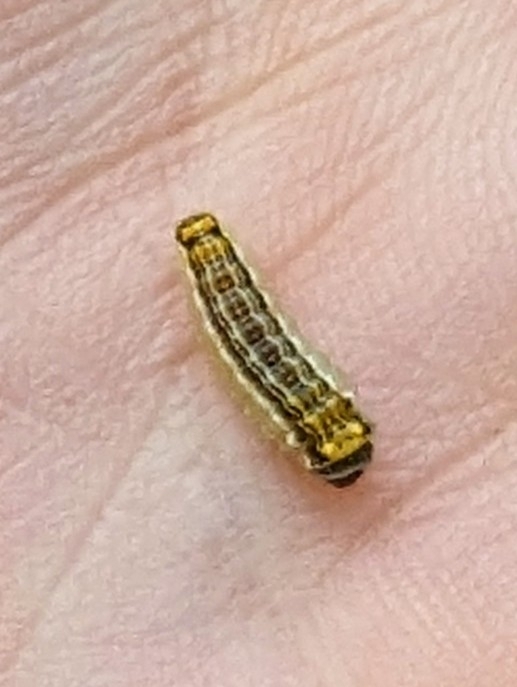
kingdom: Animalia
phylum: Arthropoda
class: Insecta
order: Lepidoptera
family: Lacturidae
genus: Lactura
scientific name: Lactura
